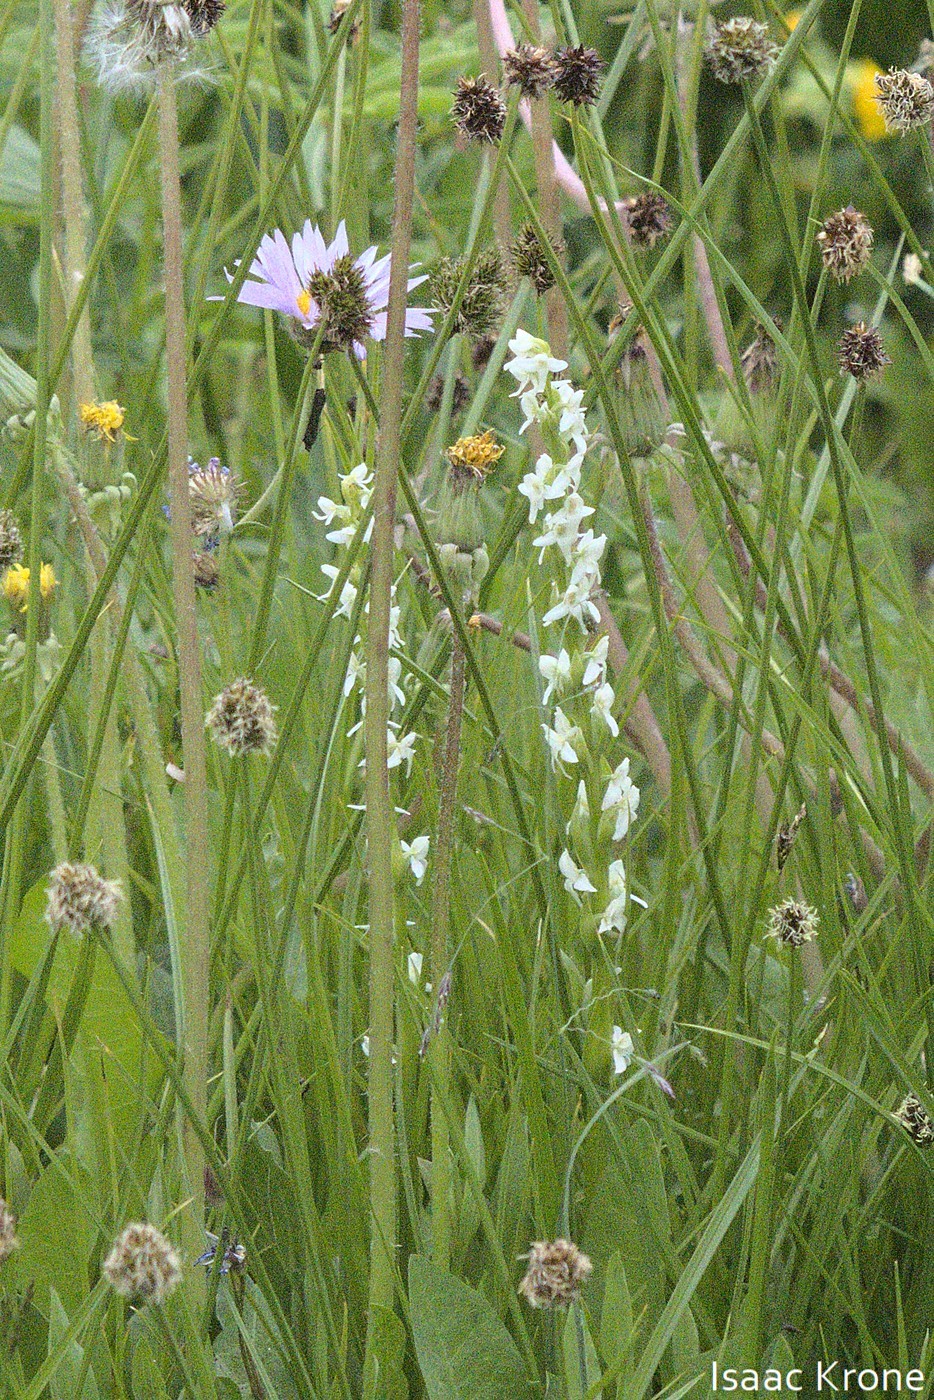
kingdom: Plantae
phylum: Tracheophyta
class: Liliopsida
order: Asparagales
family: Orchidaceae
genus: Platanthera
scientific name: Platanthera dilatata
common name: Bog candles
